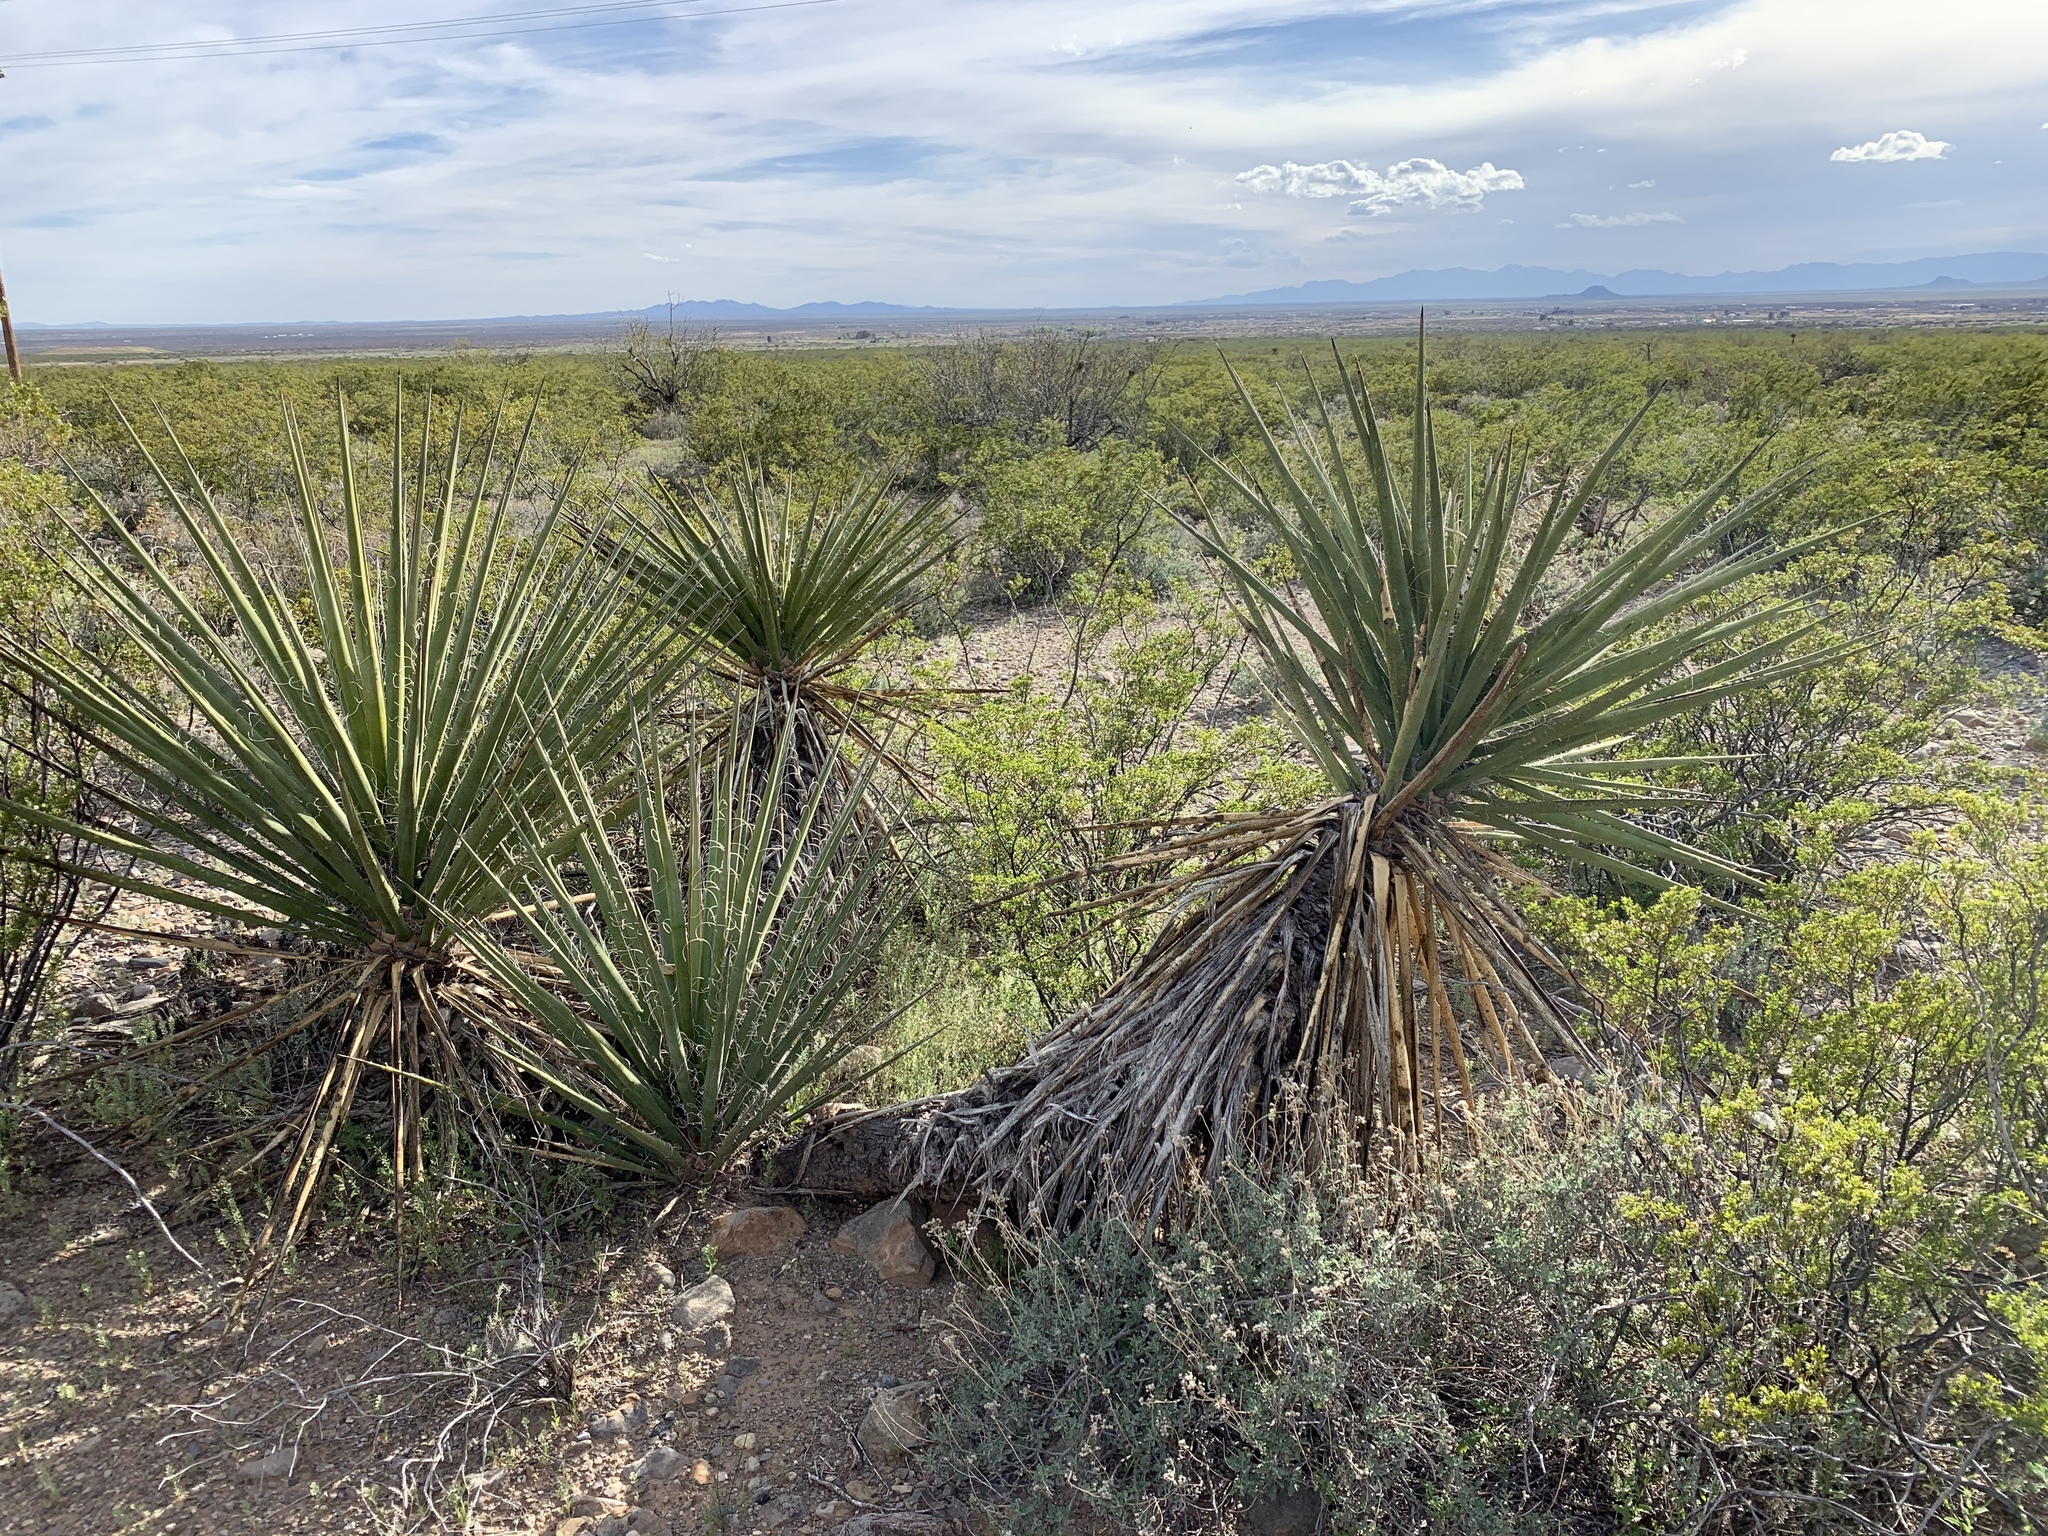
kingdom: Plantae
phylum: Tracheophyta
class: Liliopsida
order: Asparagales
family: Asparagaceae
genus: Yucca
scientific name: Yucca treculiana
